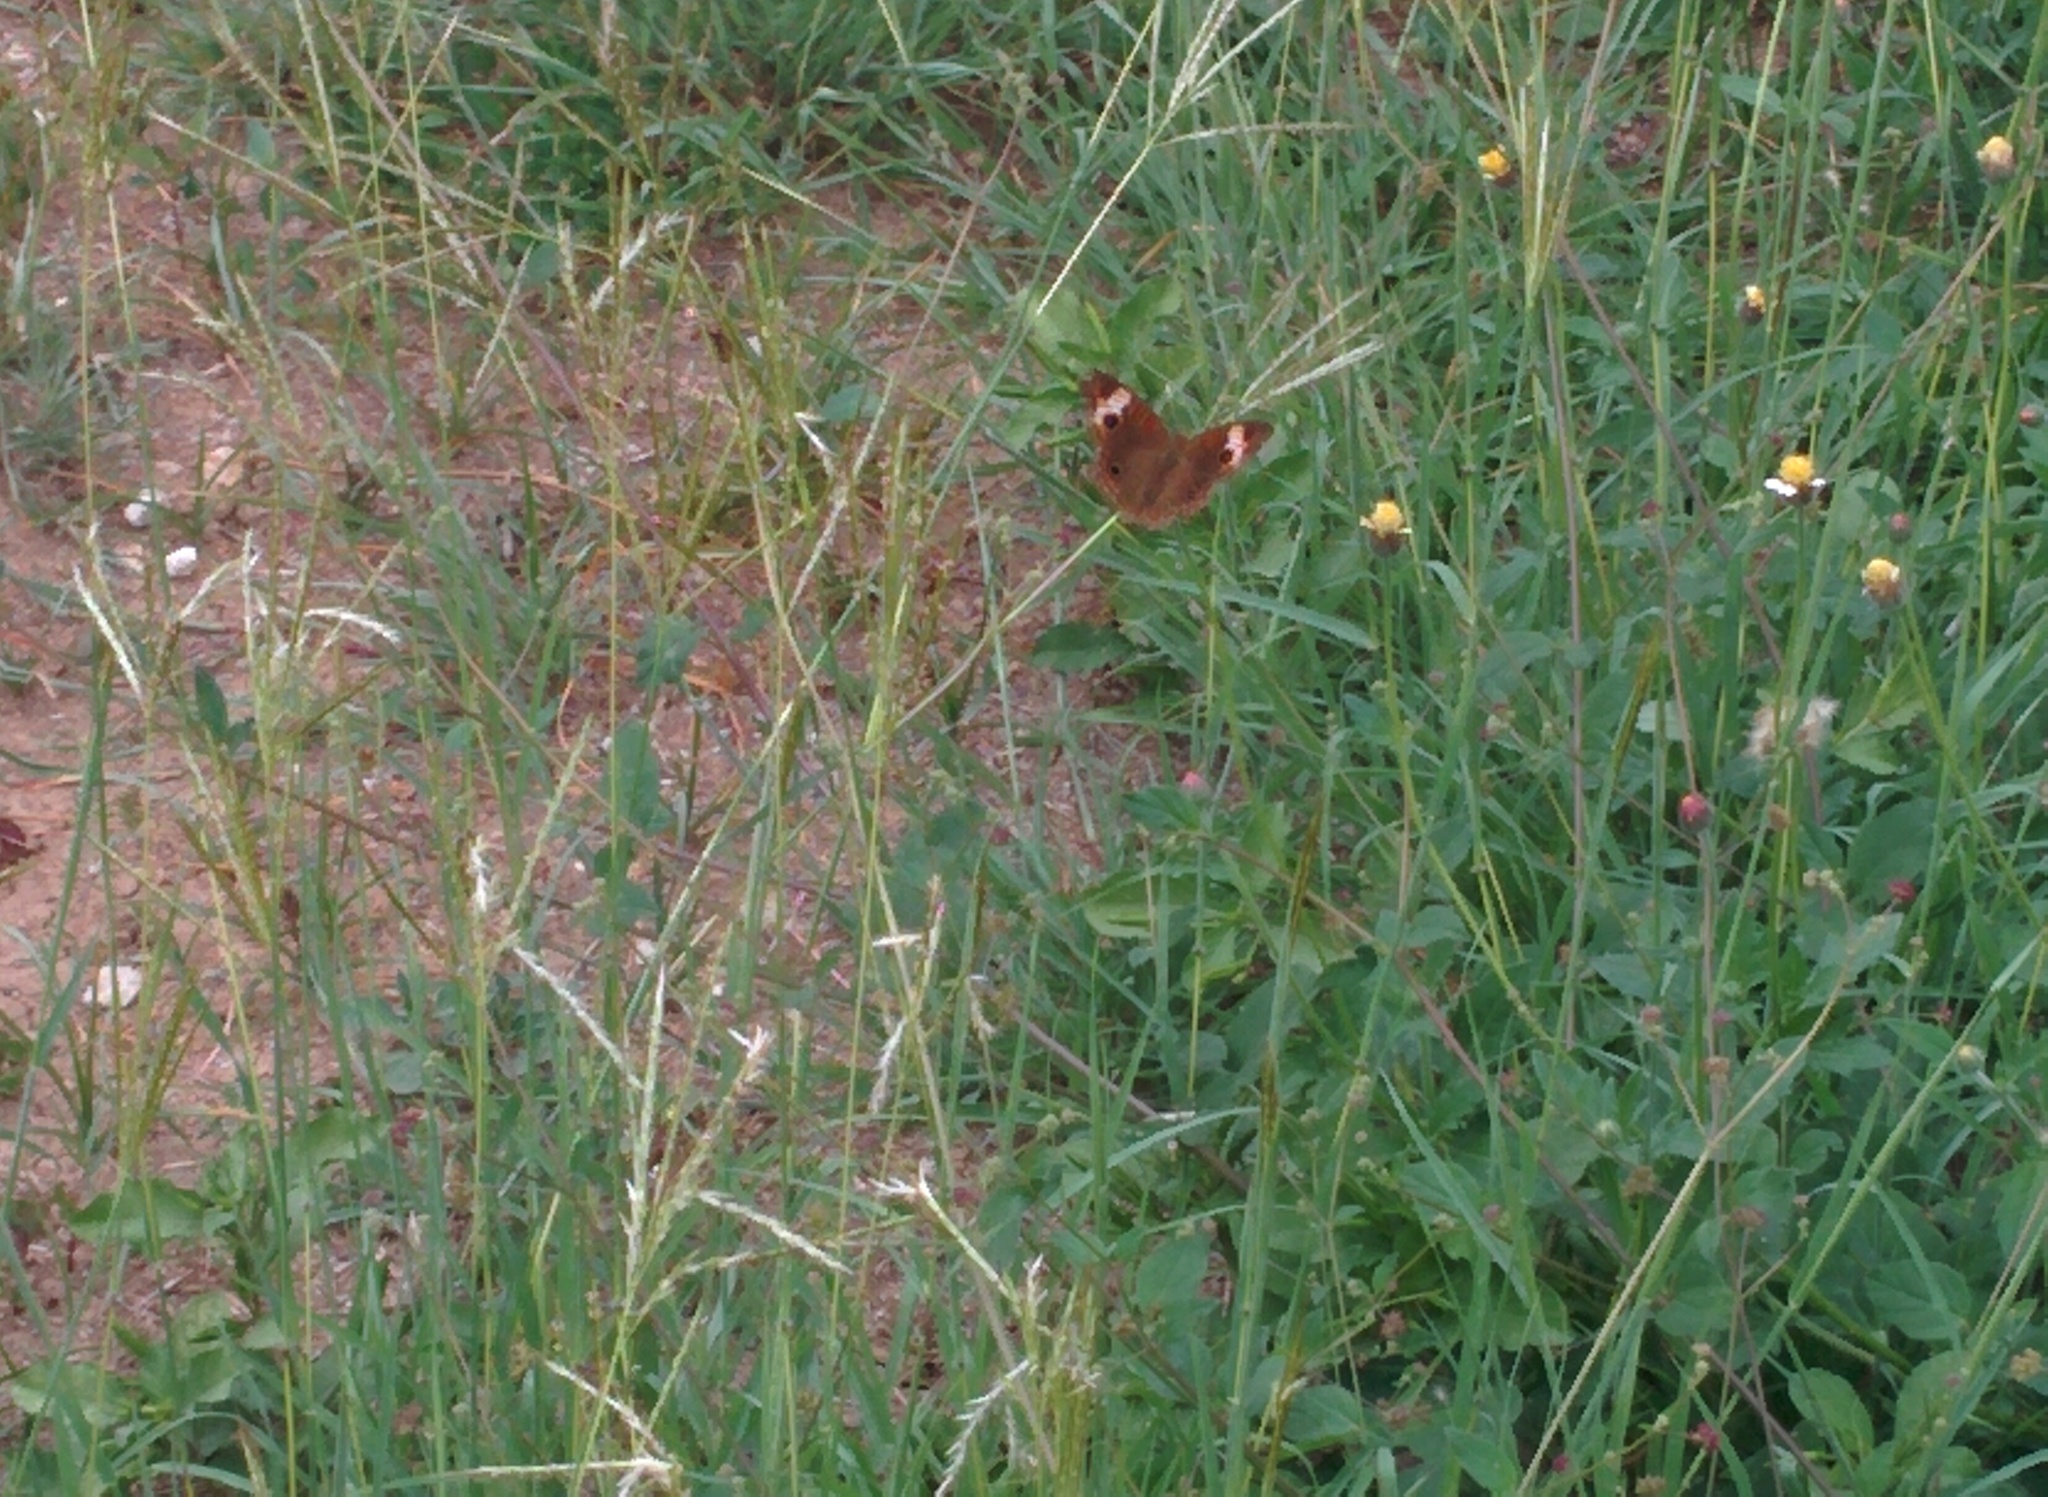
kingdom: Animalia
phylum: Arthropoda
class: Insecta
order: Lepidoptera
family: Nymphalidae
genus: Junonia
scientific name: Junonia lavinia
